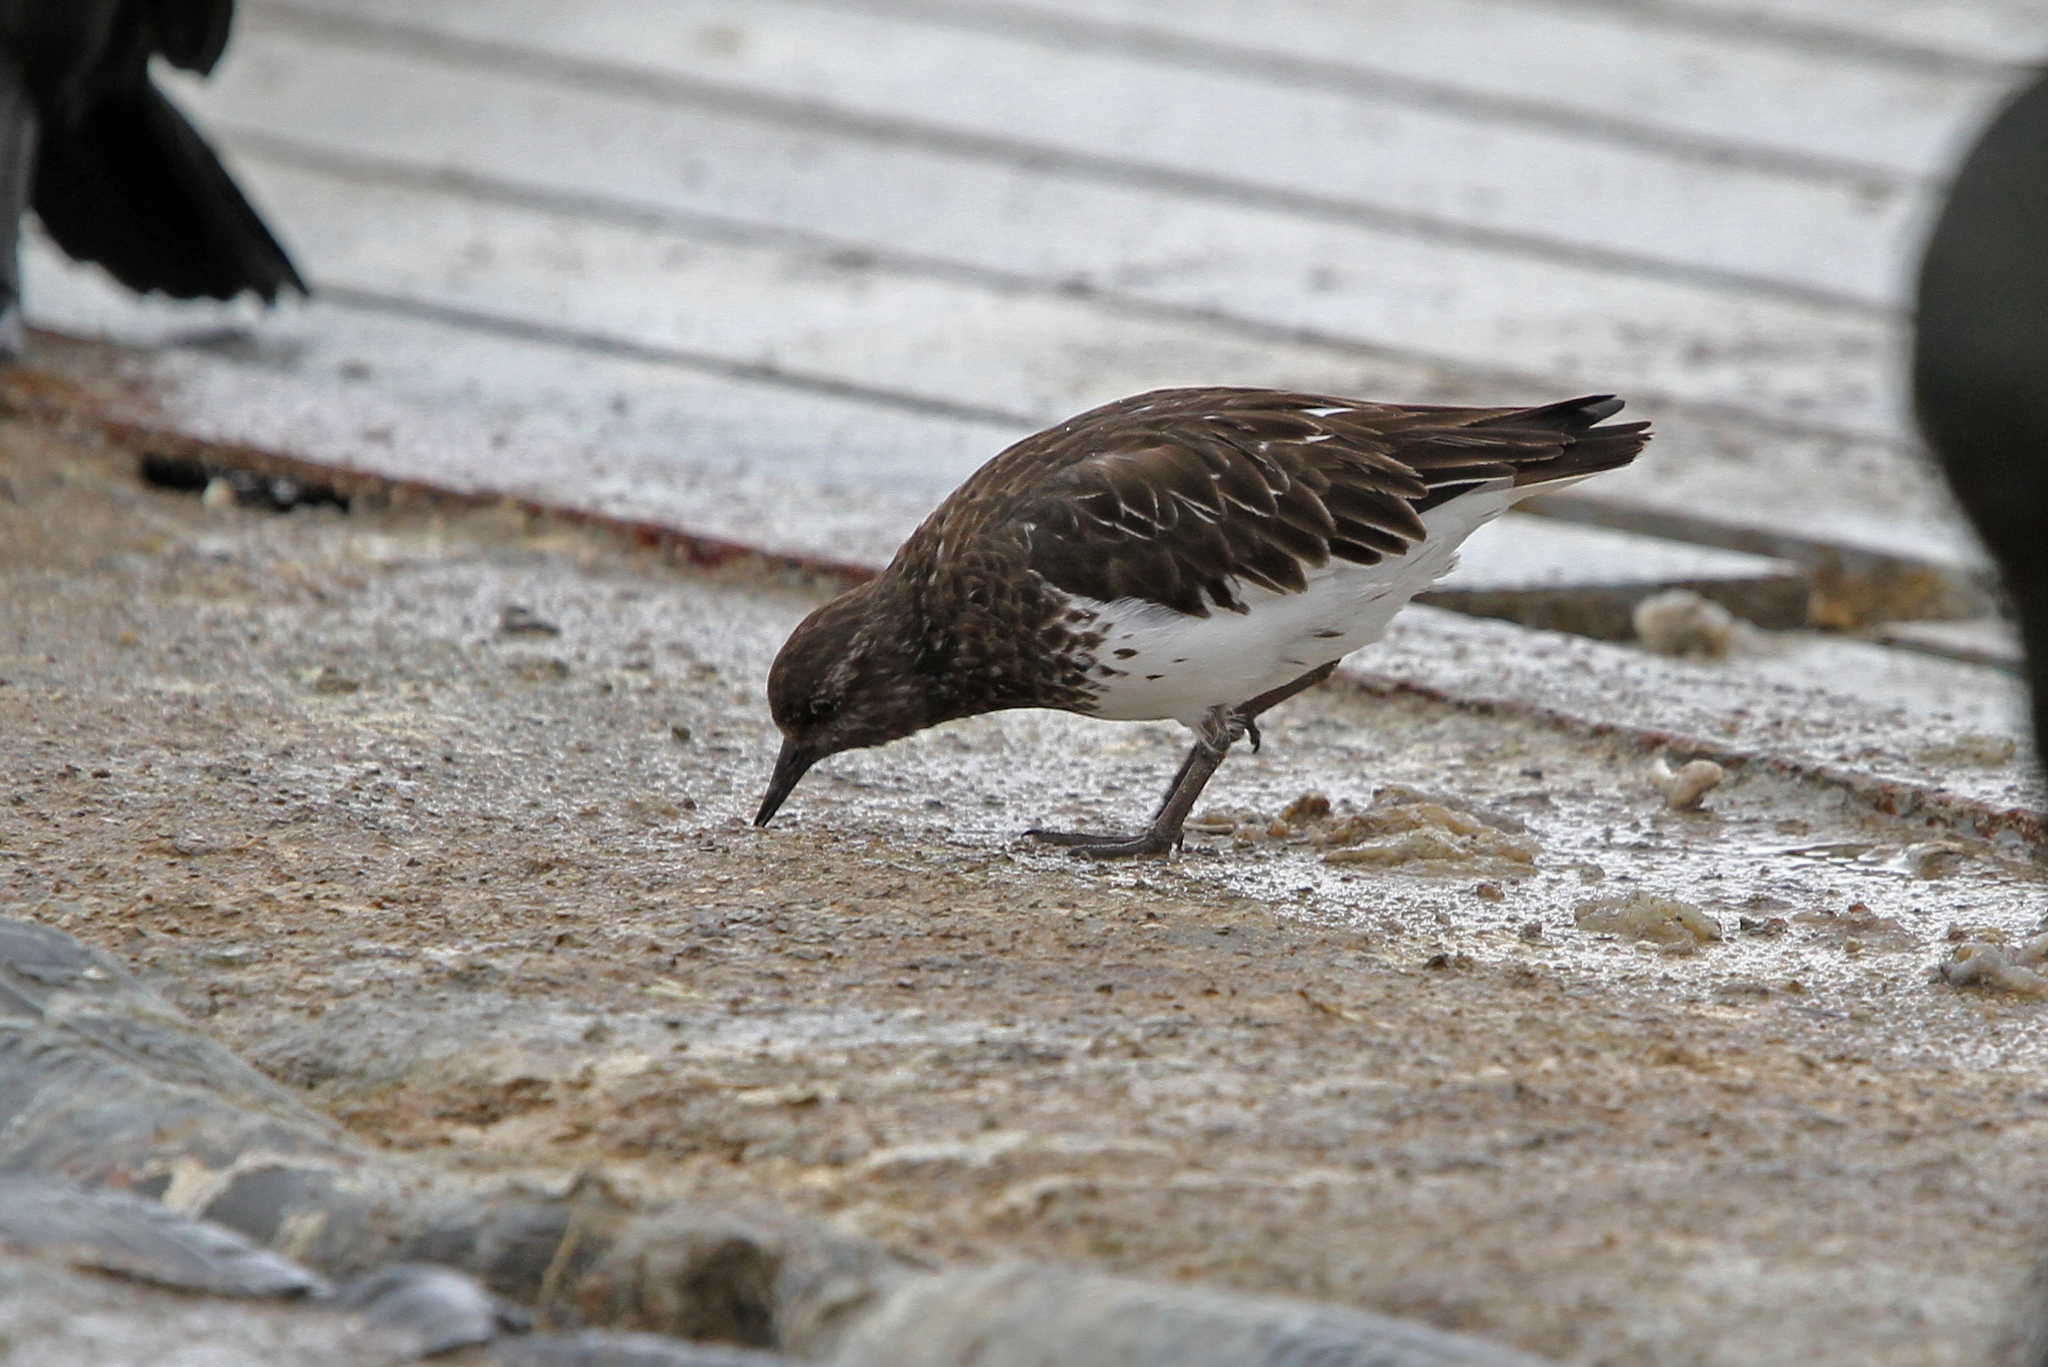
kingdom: Animalia
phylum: Chordata
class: Aves
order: Charadriiformes
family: Scolopacidae
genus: Arenaria
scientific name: Arenaria melanocephala
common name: Black turnstone
